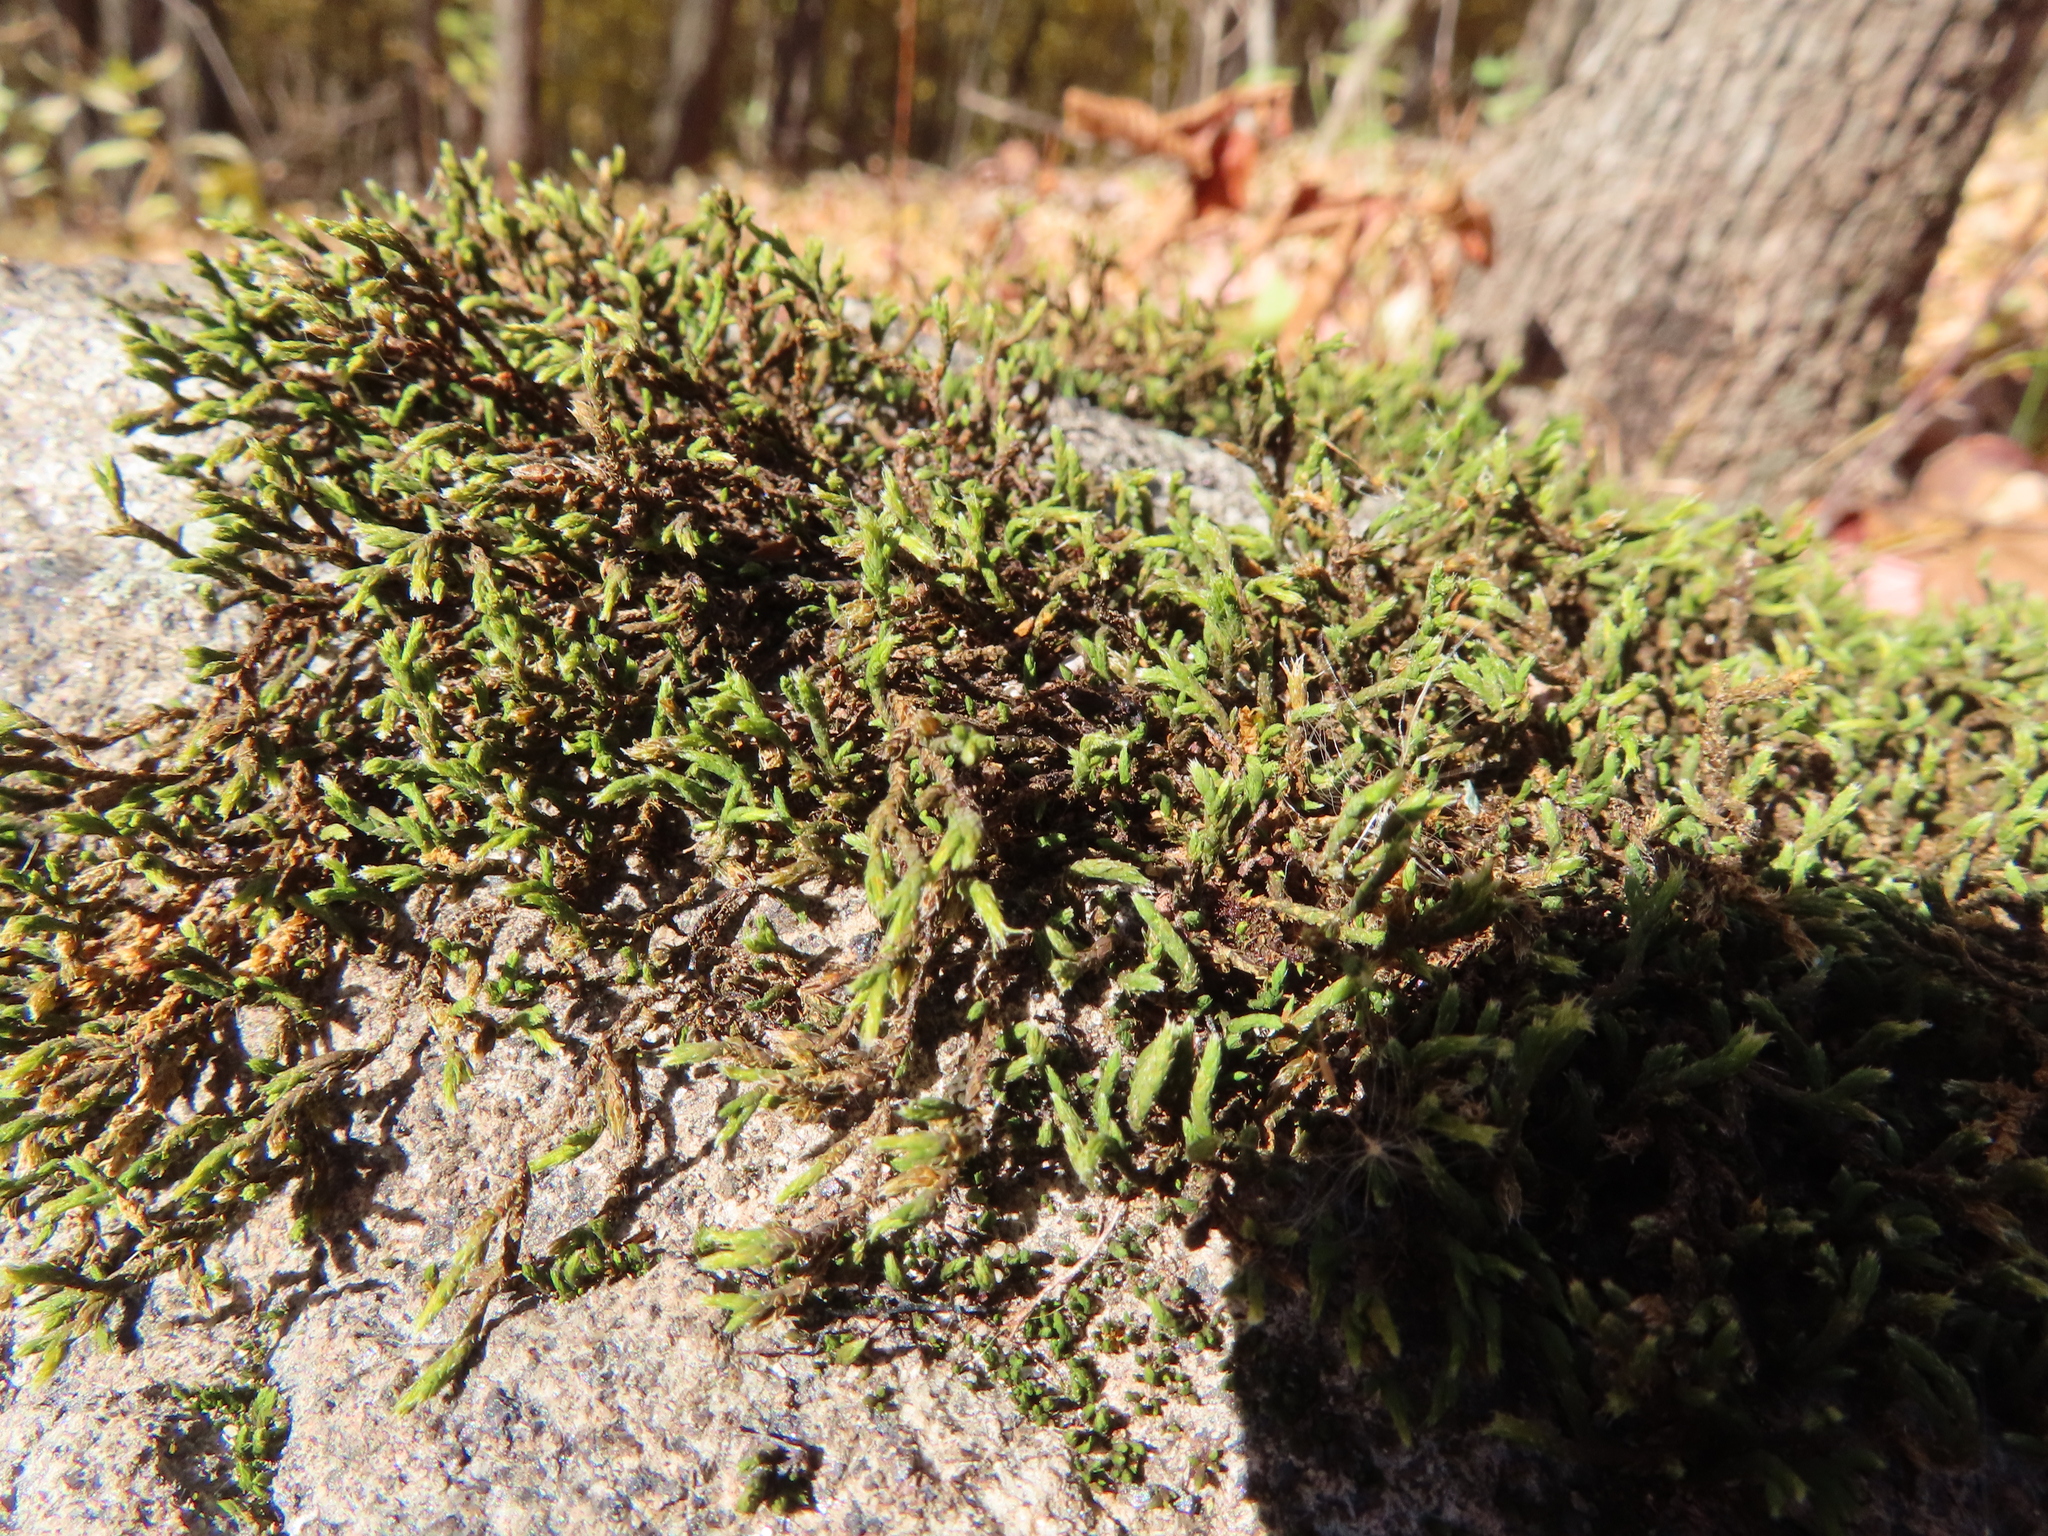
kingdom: Plantae
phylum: Bryophyta
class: Bryopsida
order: Hedwigiales
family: Hedwigiaceae
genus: Hedwigia
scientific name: Hedwigia ciliata
